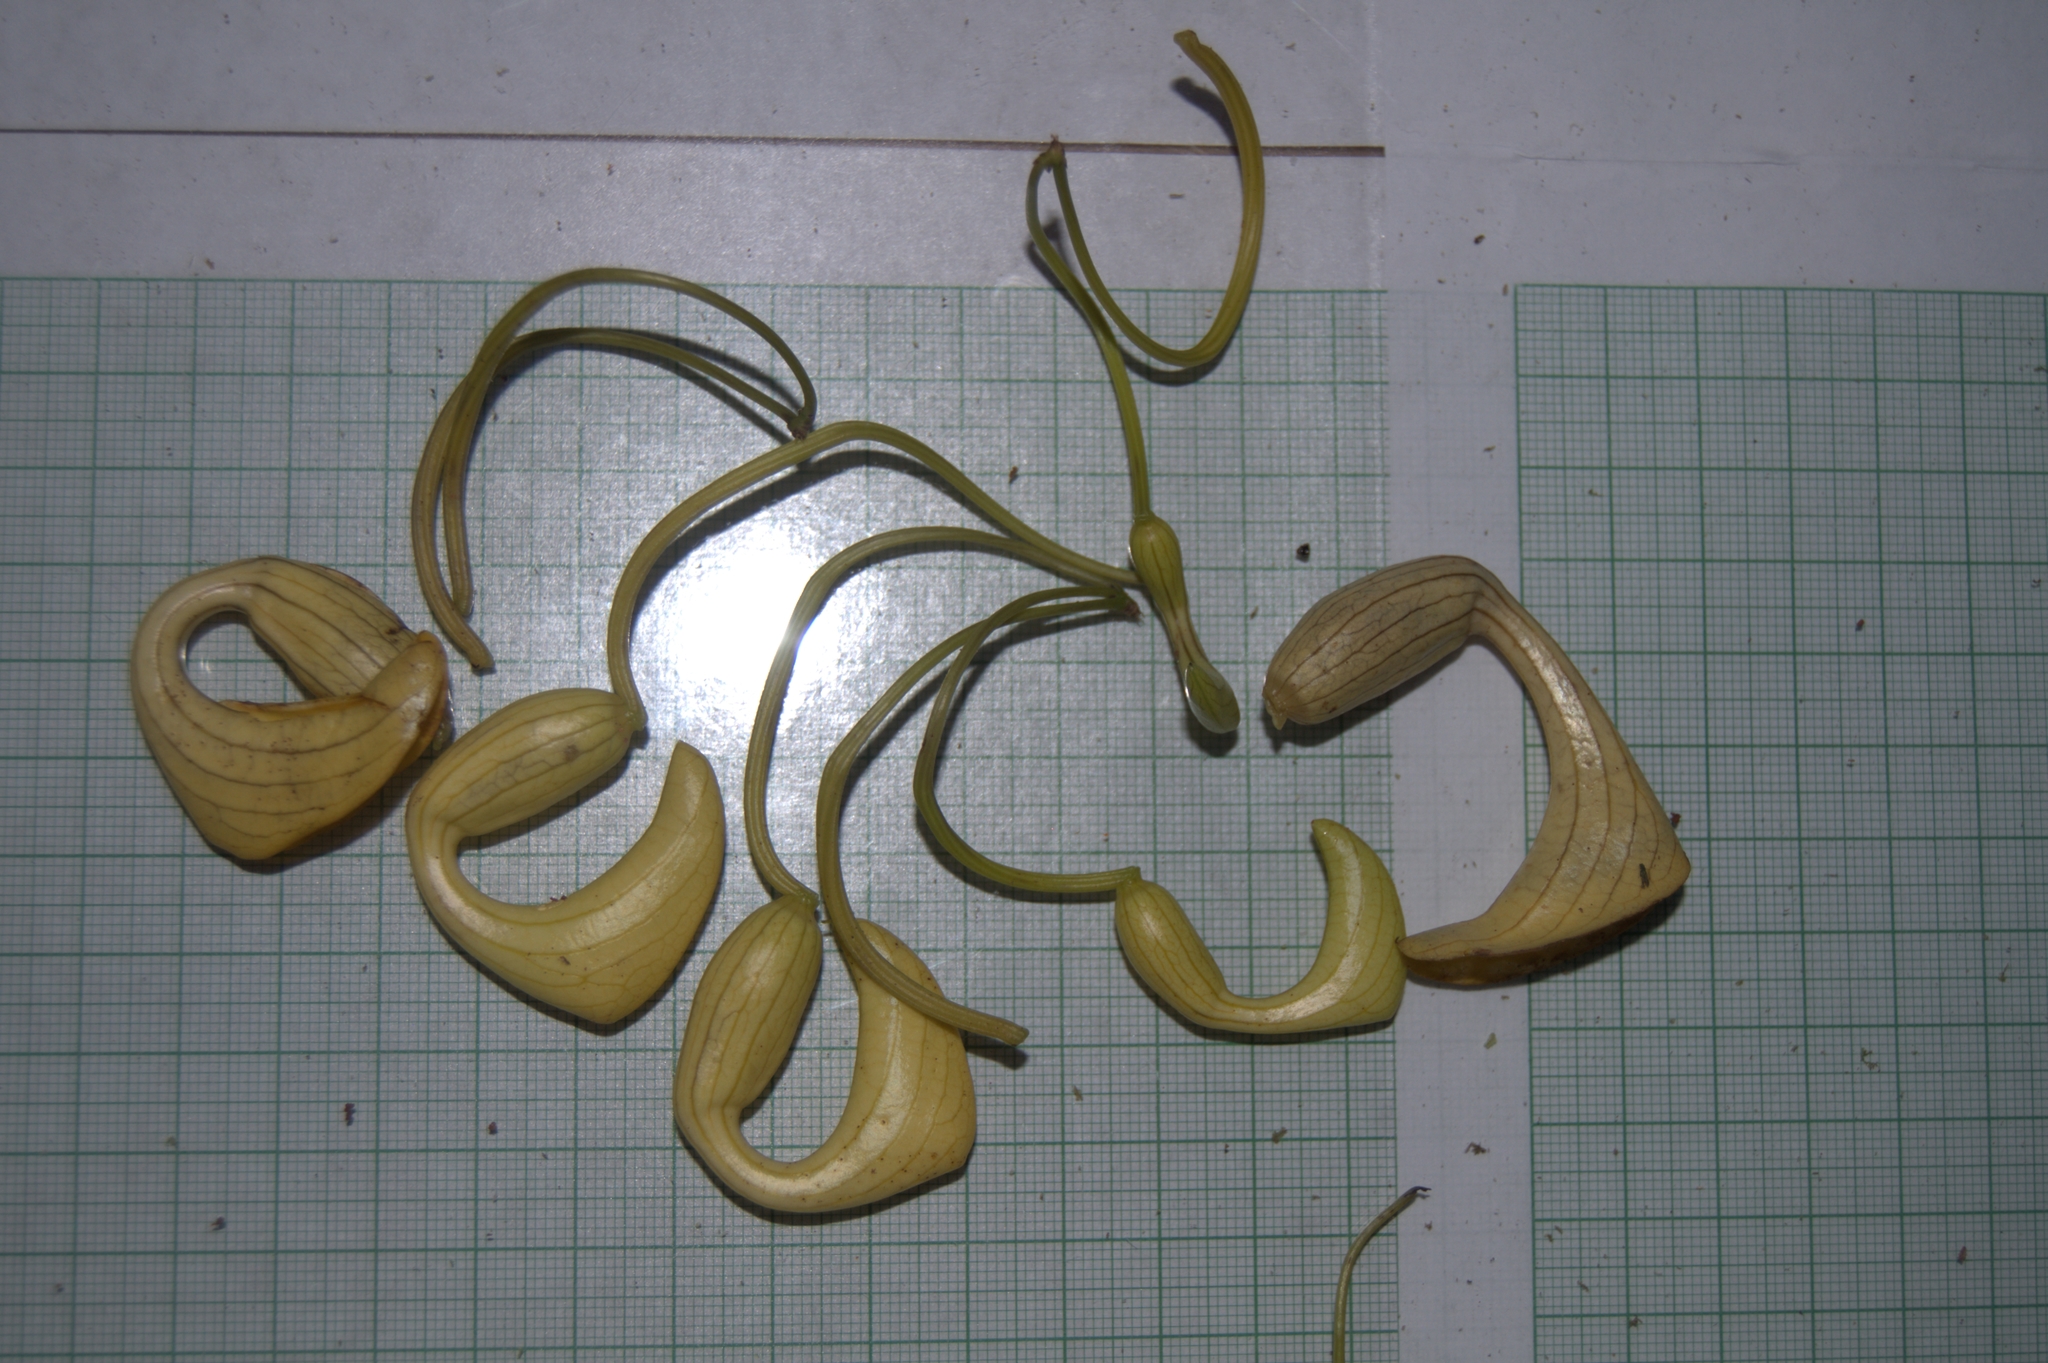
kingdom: Plantae
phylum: Tracheophyta
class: Magnoliopsida
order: Piperales
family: Aristolochiaceae
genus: Aristolochia
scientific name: Aristolochia leuconeura
